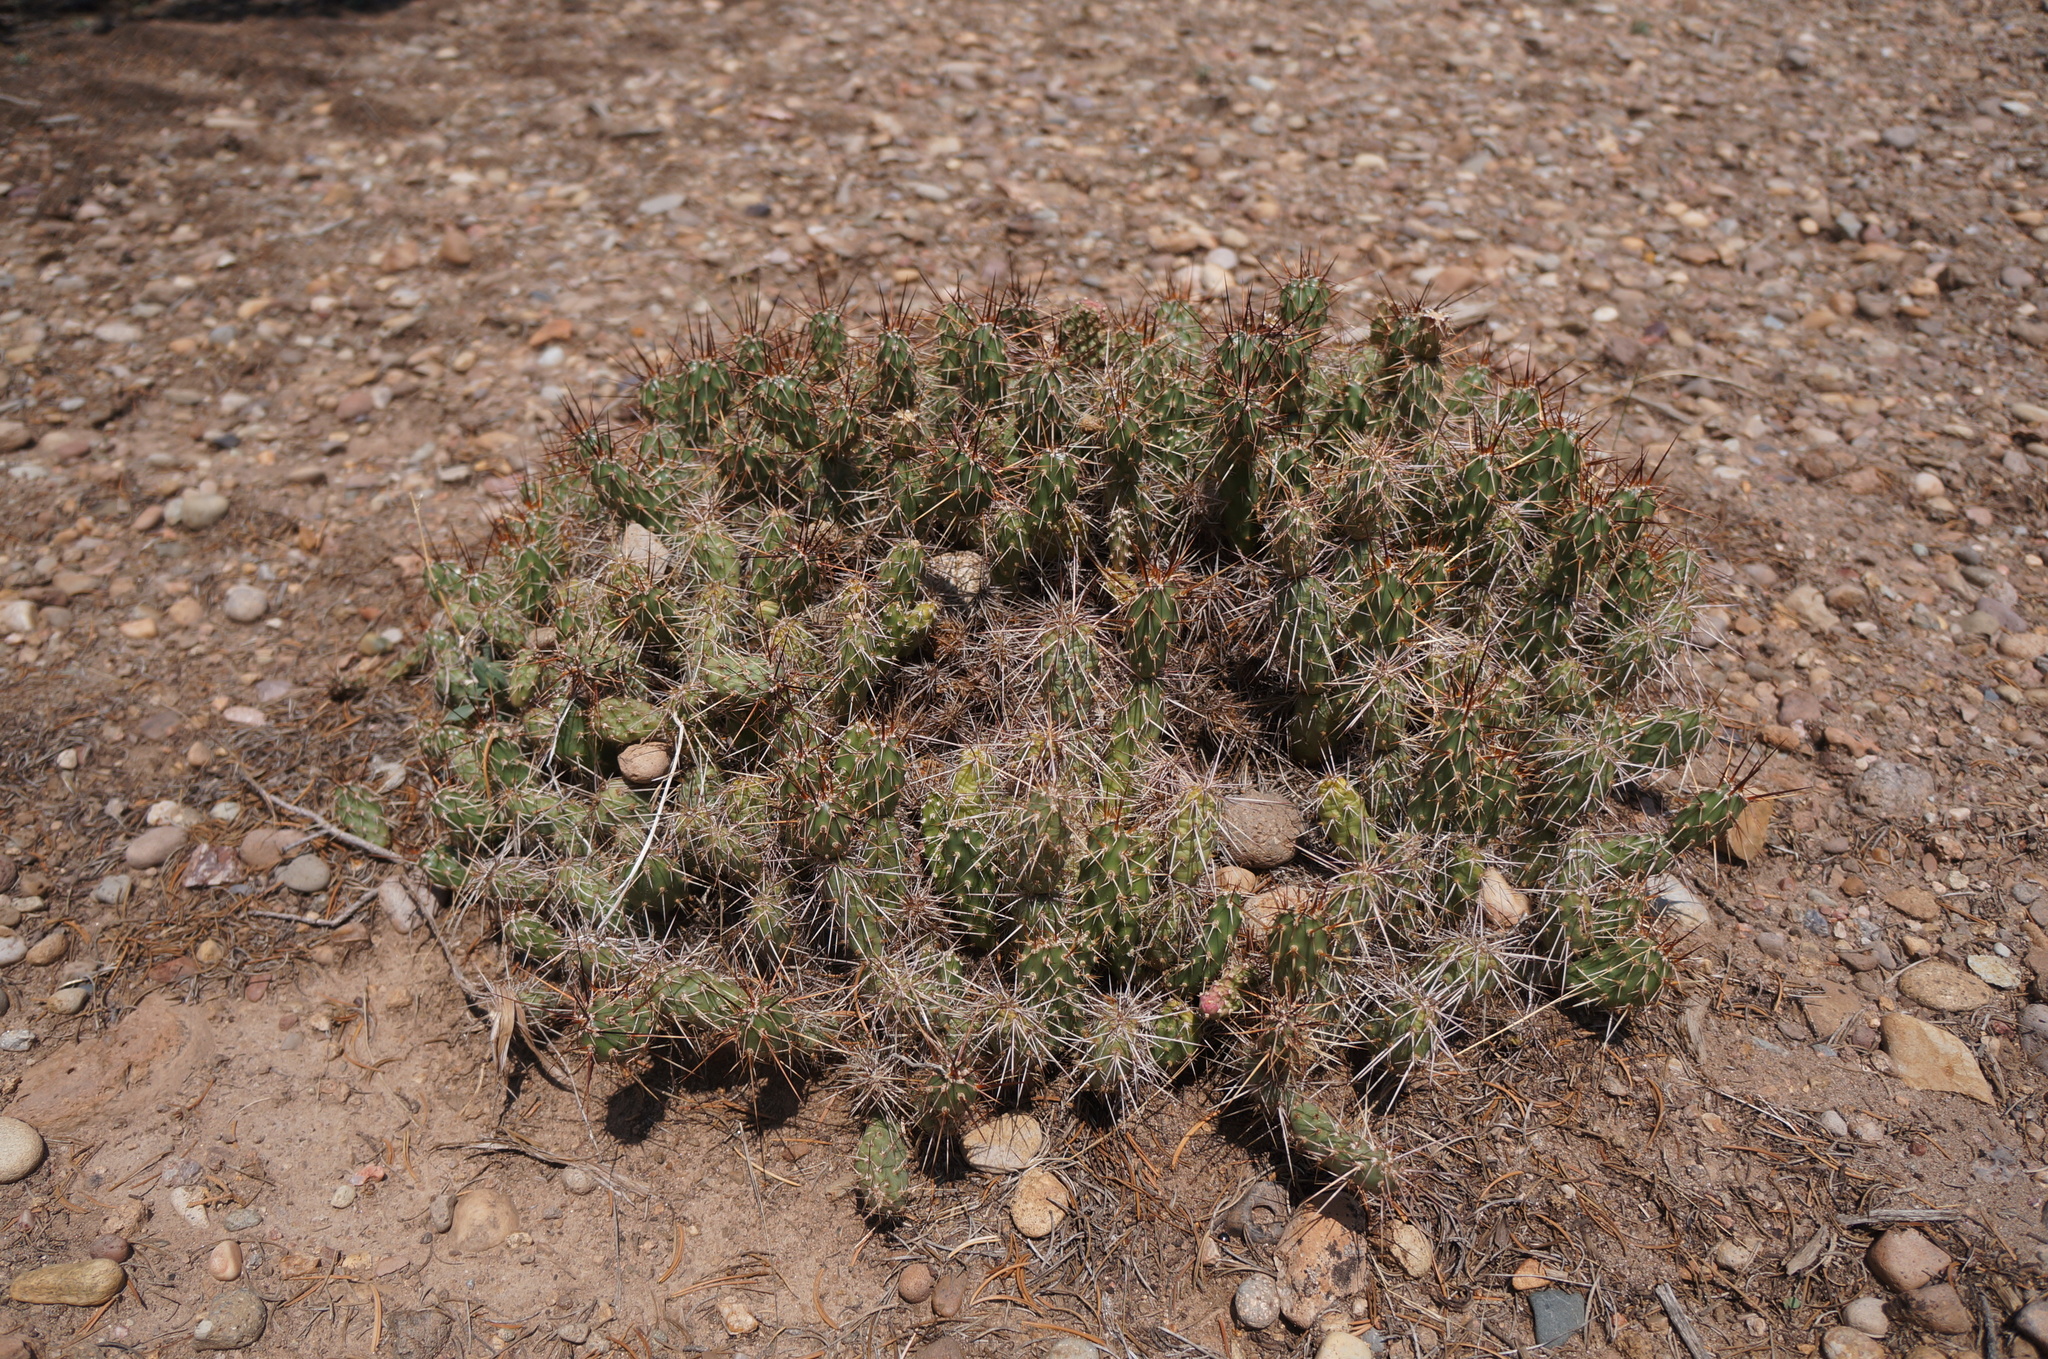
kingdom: Plantae
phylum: Tracheophyta
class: Magnoliopsida
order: Caryophyllales
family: Cactaceae
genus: Opuntia
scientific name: Opuntia fragilis
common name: Brittle cactus
